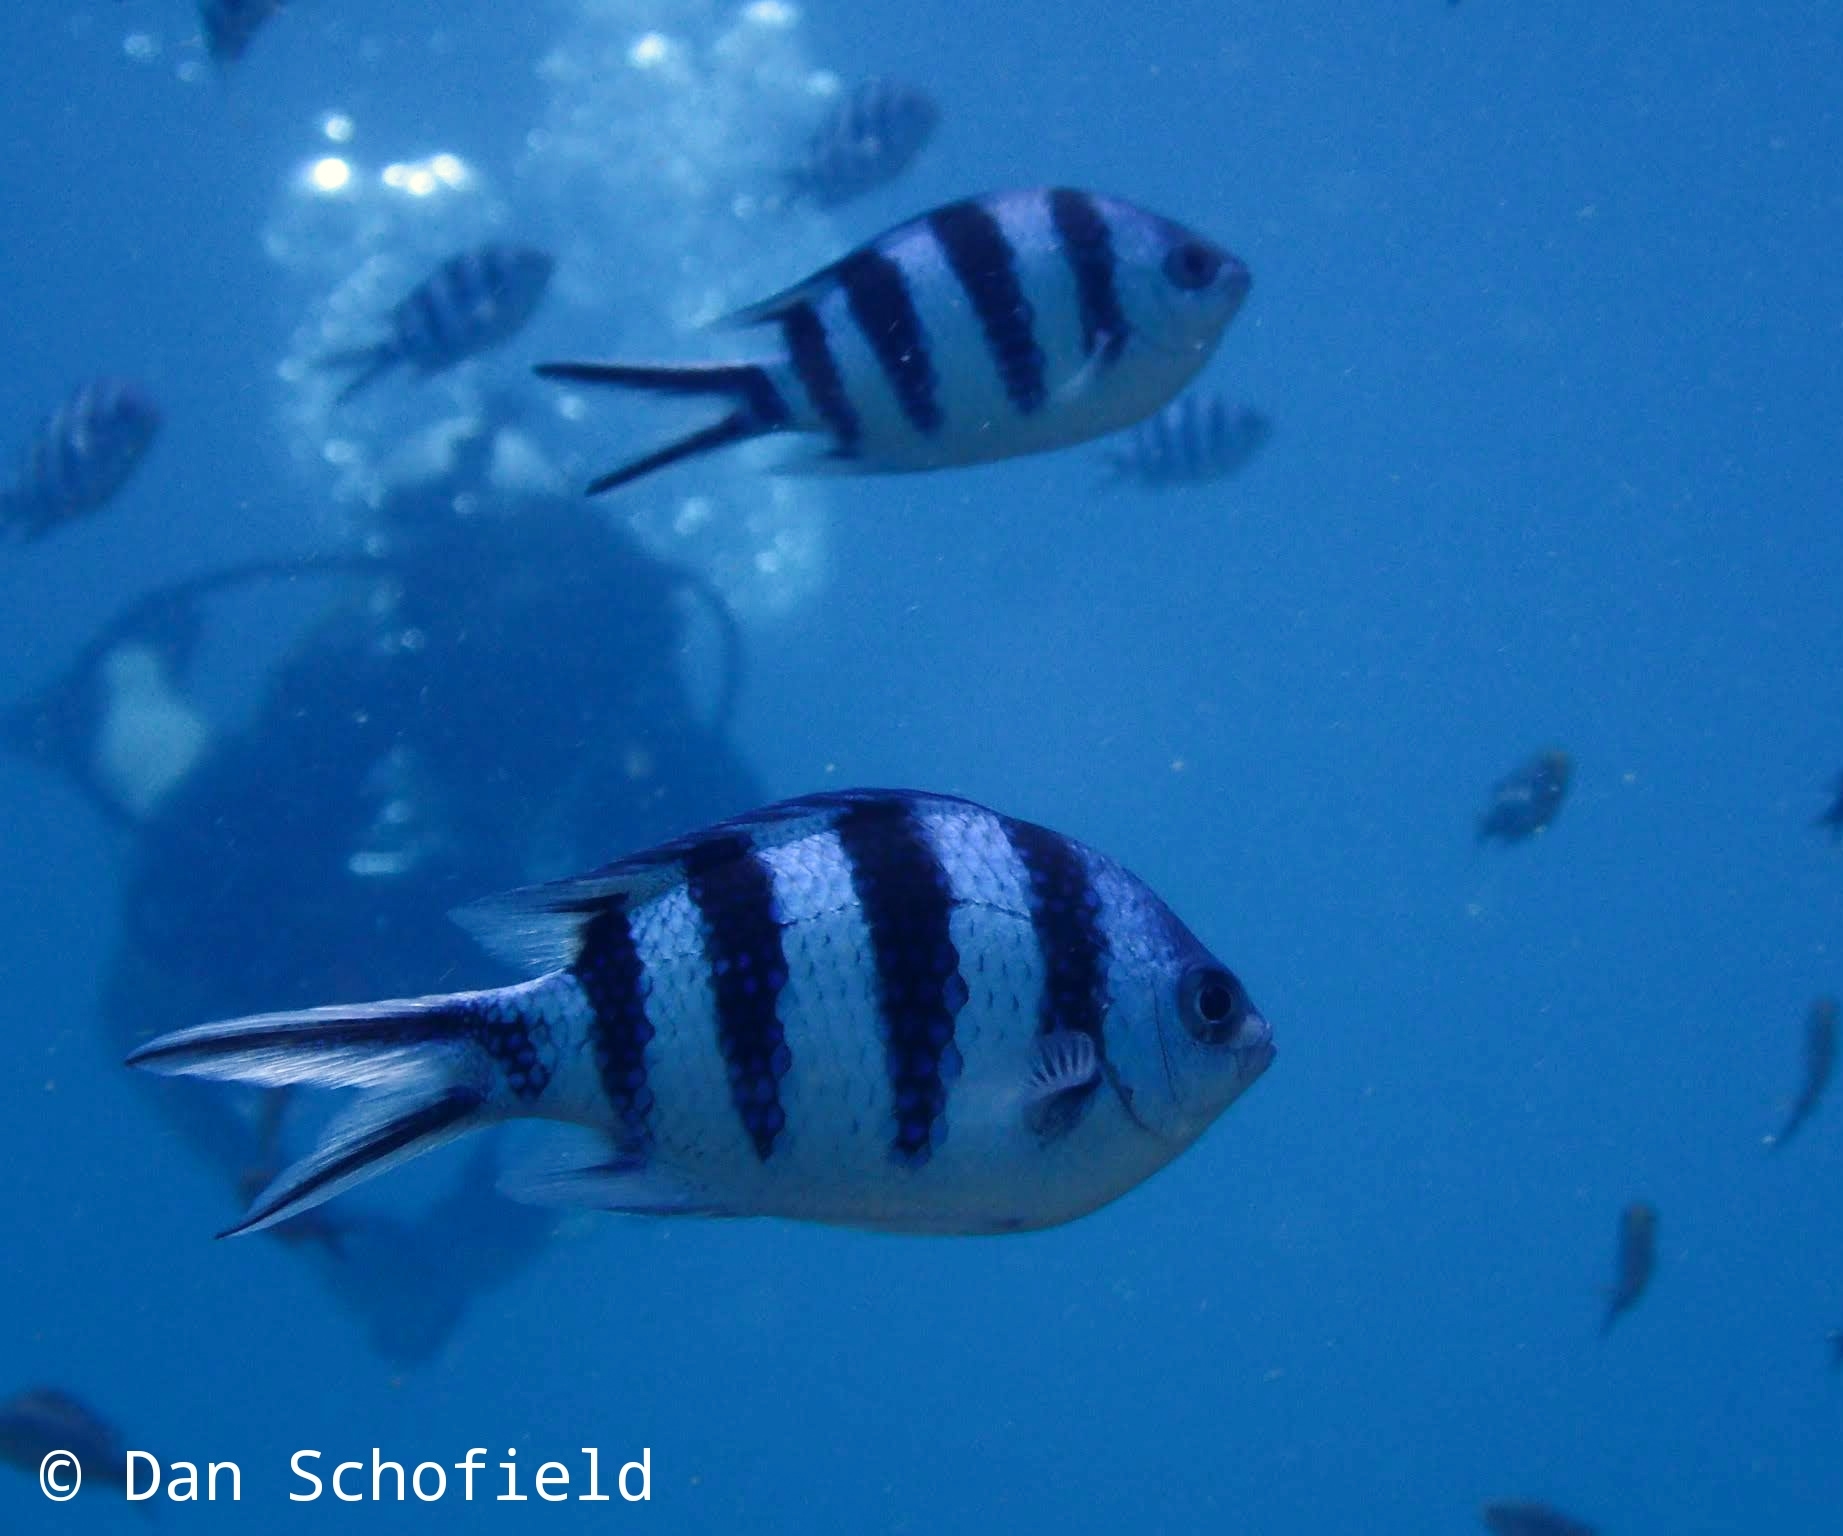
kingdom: Animalia
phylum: Chordata
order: Perciformes
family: Pomacentridae
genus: Abudefduf
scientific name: Abudefduf sexfasciatus
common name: Scissortail sergeant
